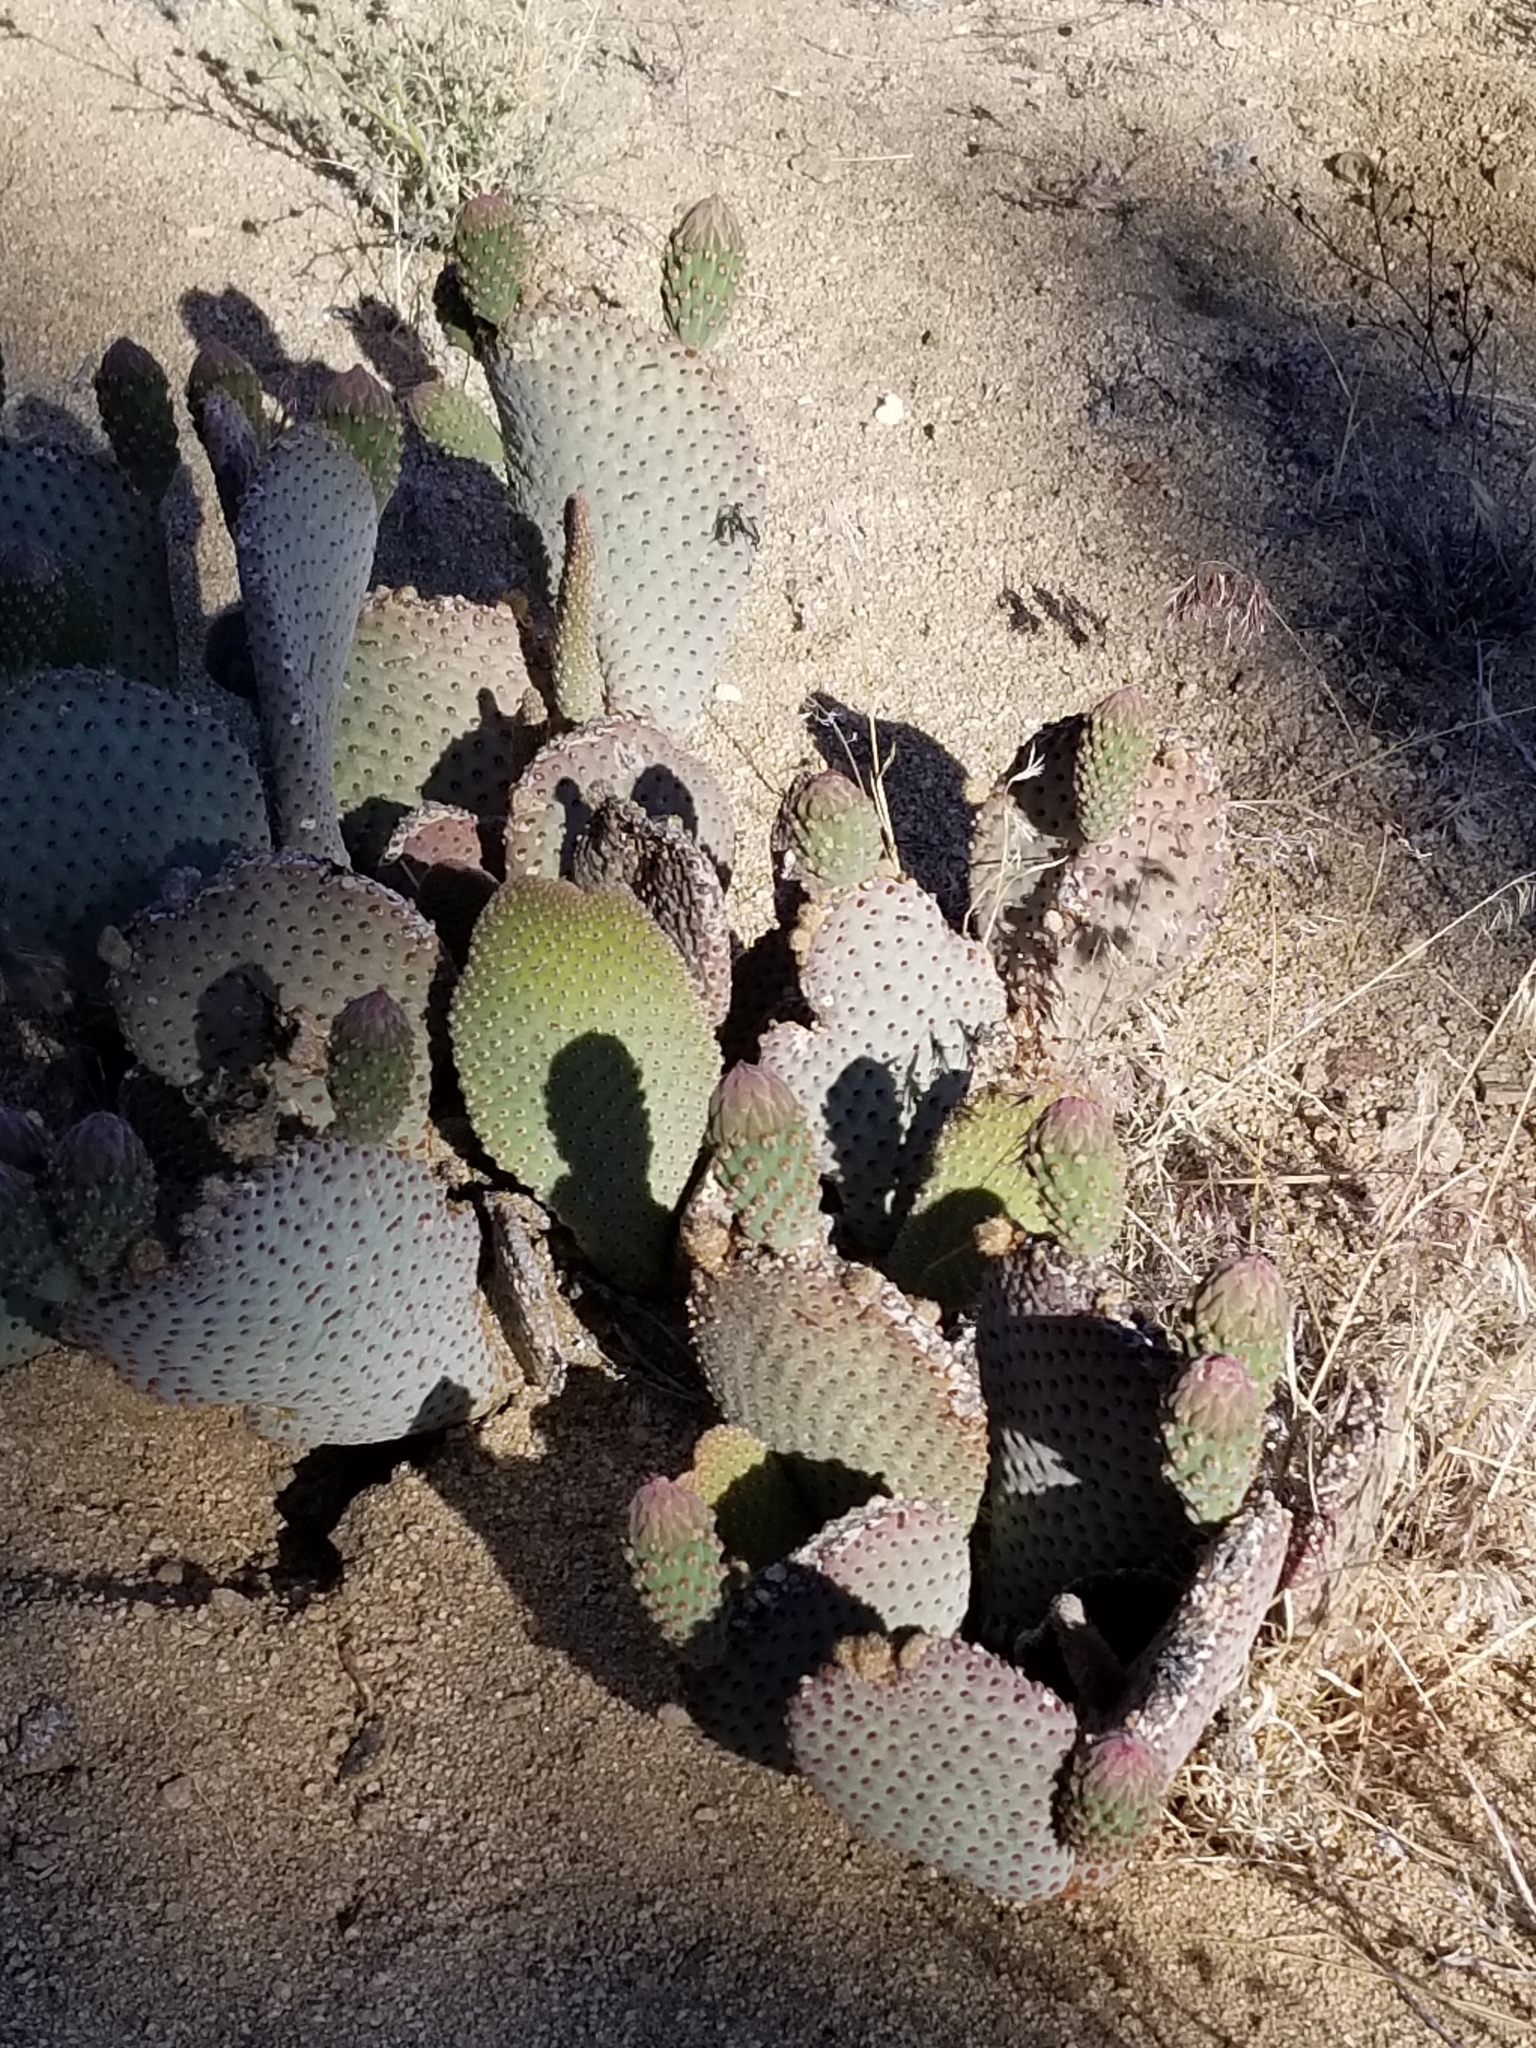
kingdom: Plantae
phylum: Tracheophyta
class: Magnoliopsida
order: Caryophyllales
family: Cactaceae
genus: Opuntia
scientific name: Opuntia basilaris
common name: Beavertail prickly-pear
